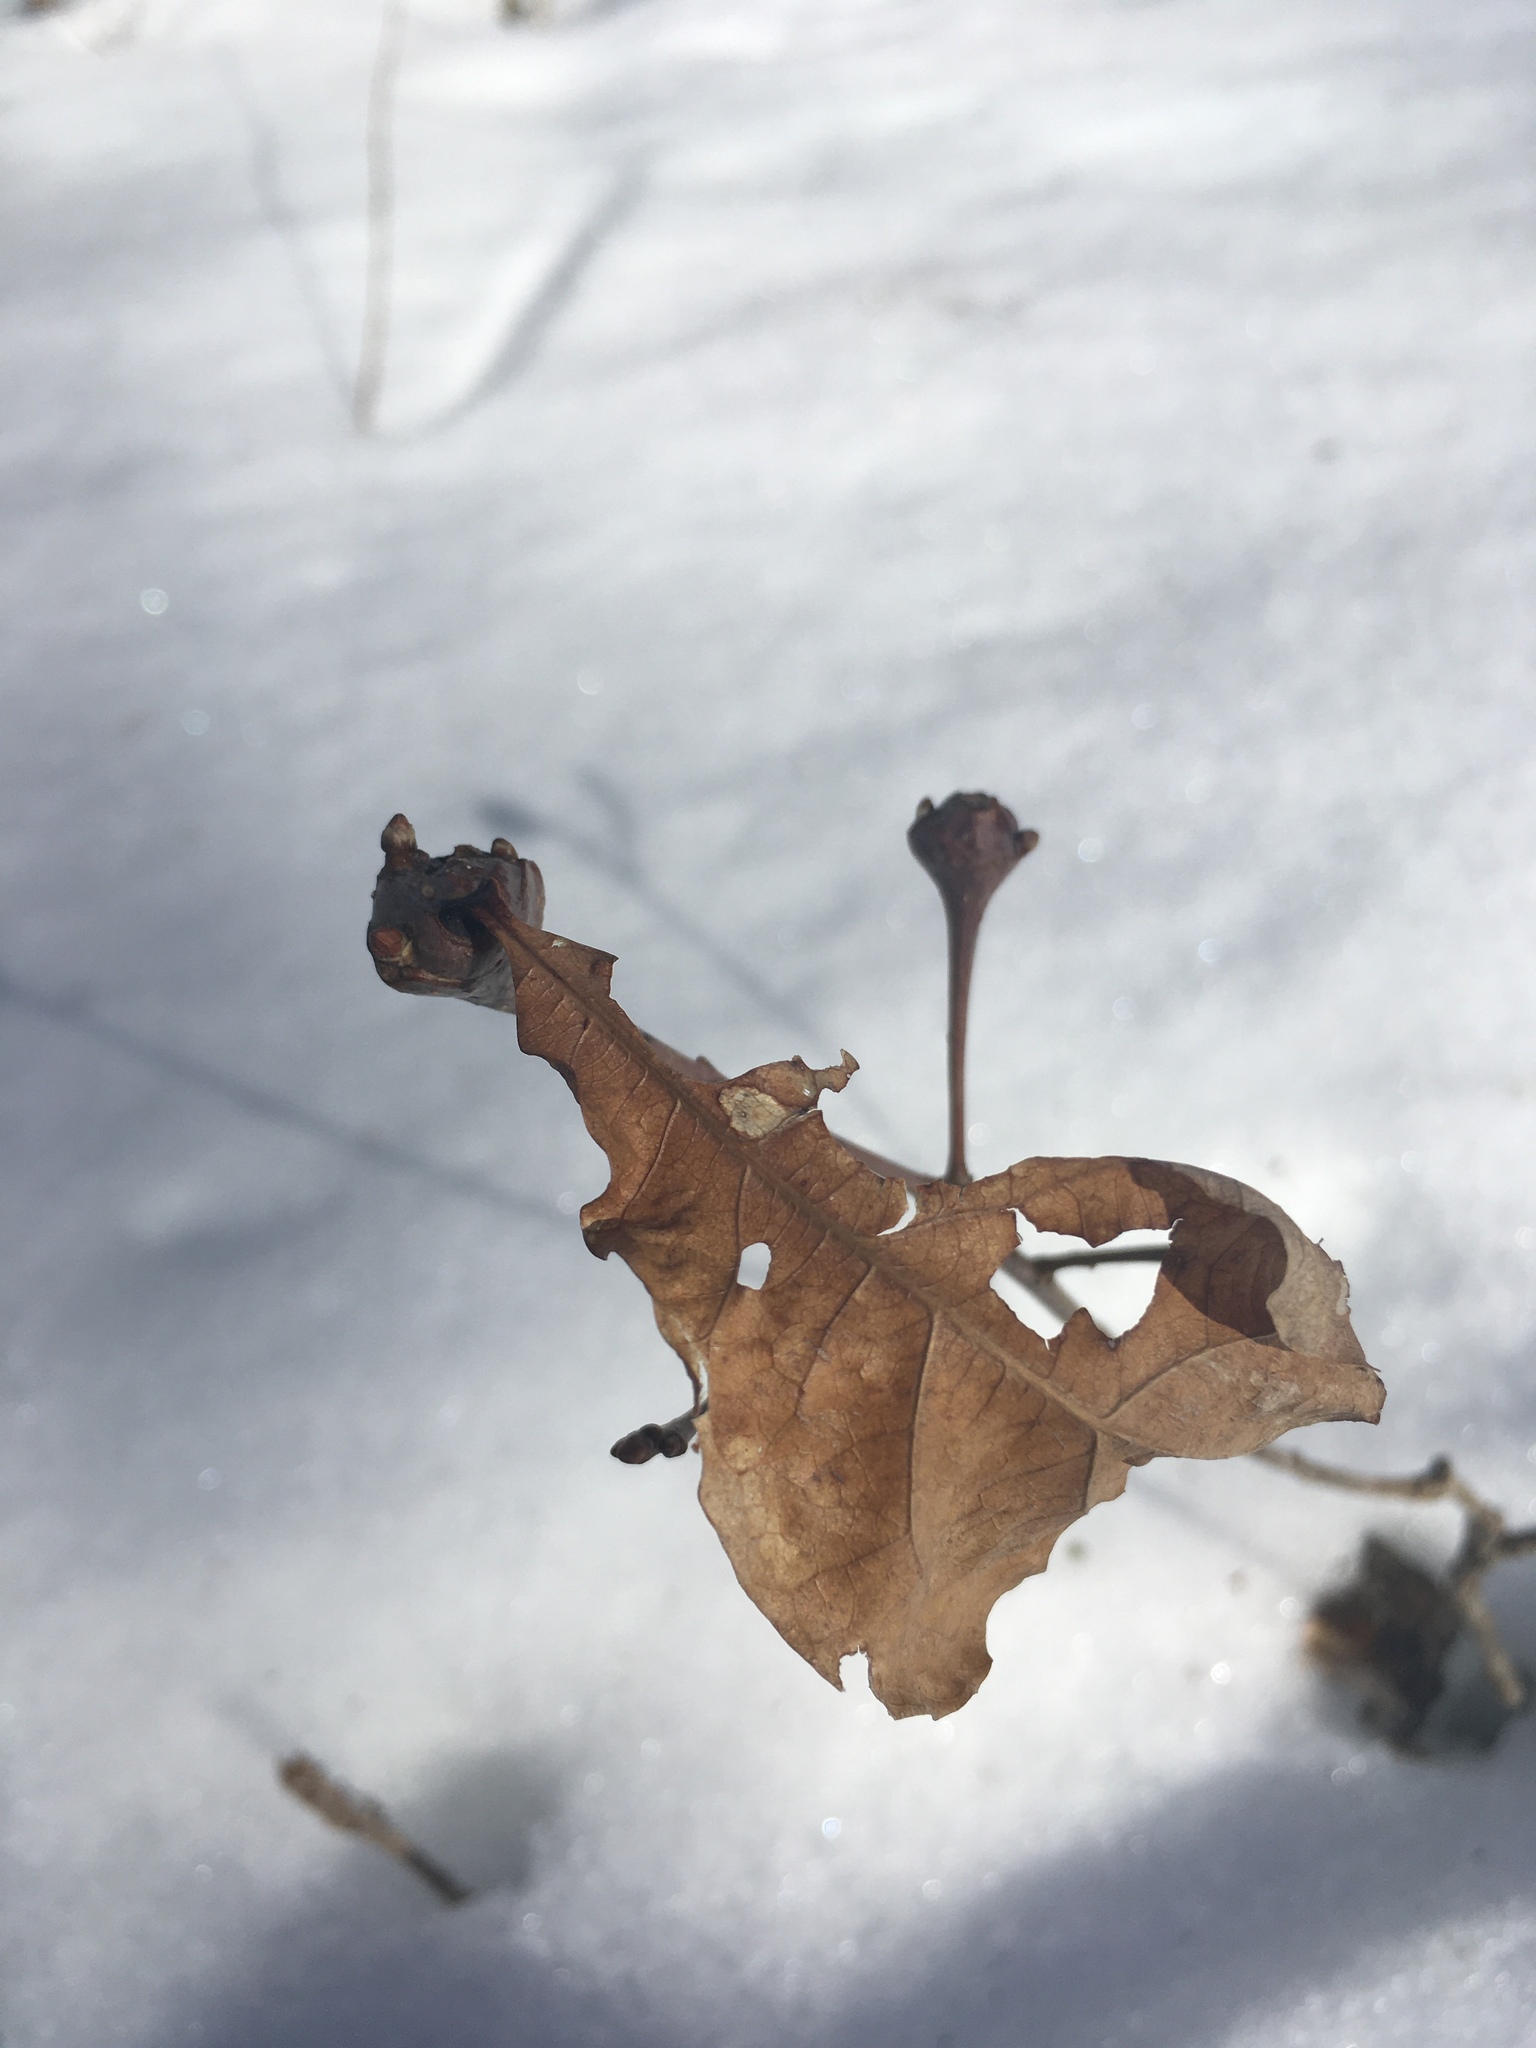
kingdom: Animalia
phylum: Arthropoda
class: Insecta
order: Hymenoptera
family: Cynipidae
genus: Callirhytis
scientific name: Callirhytis clavula
